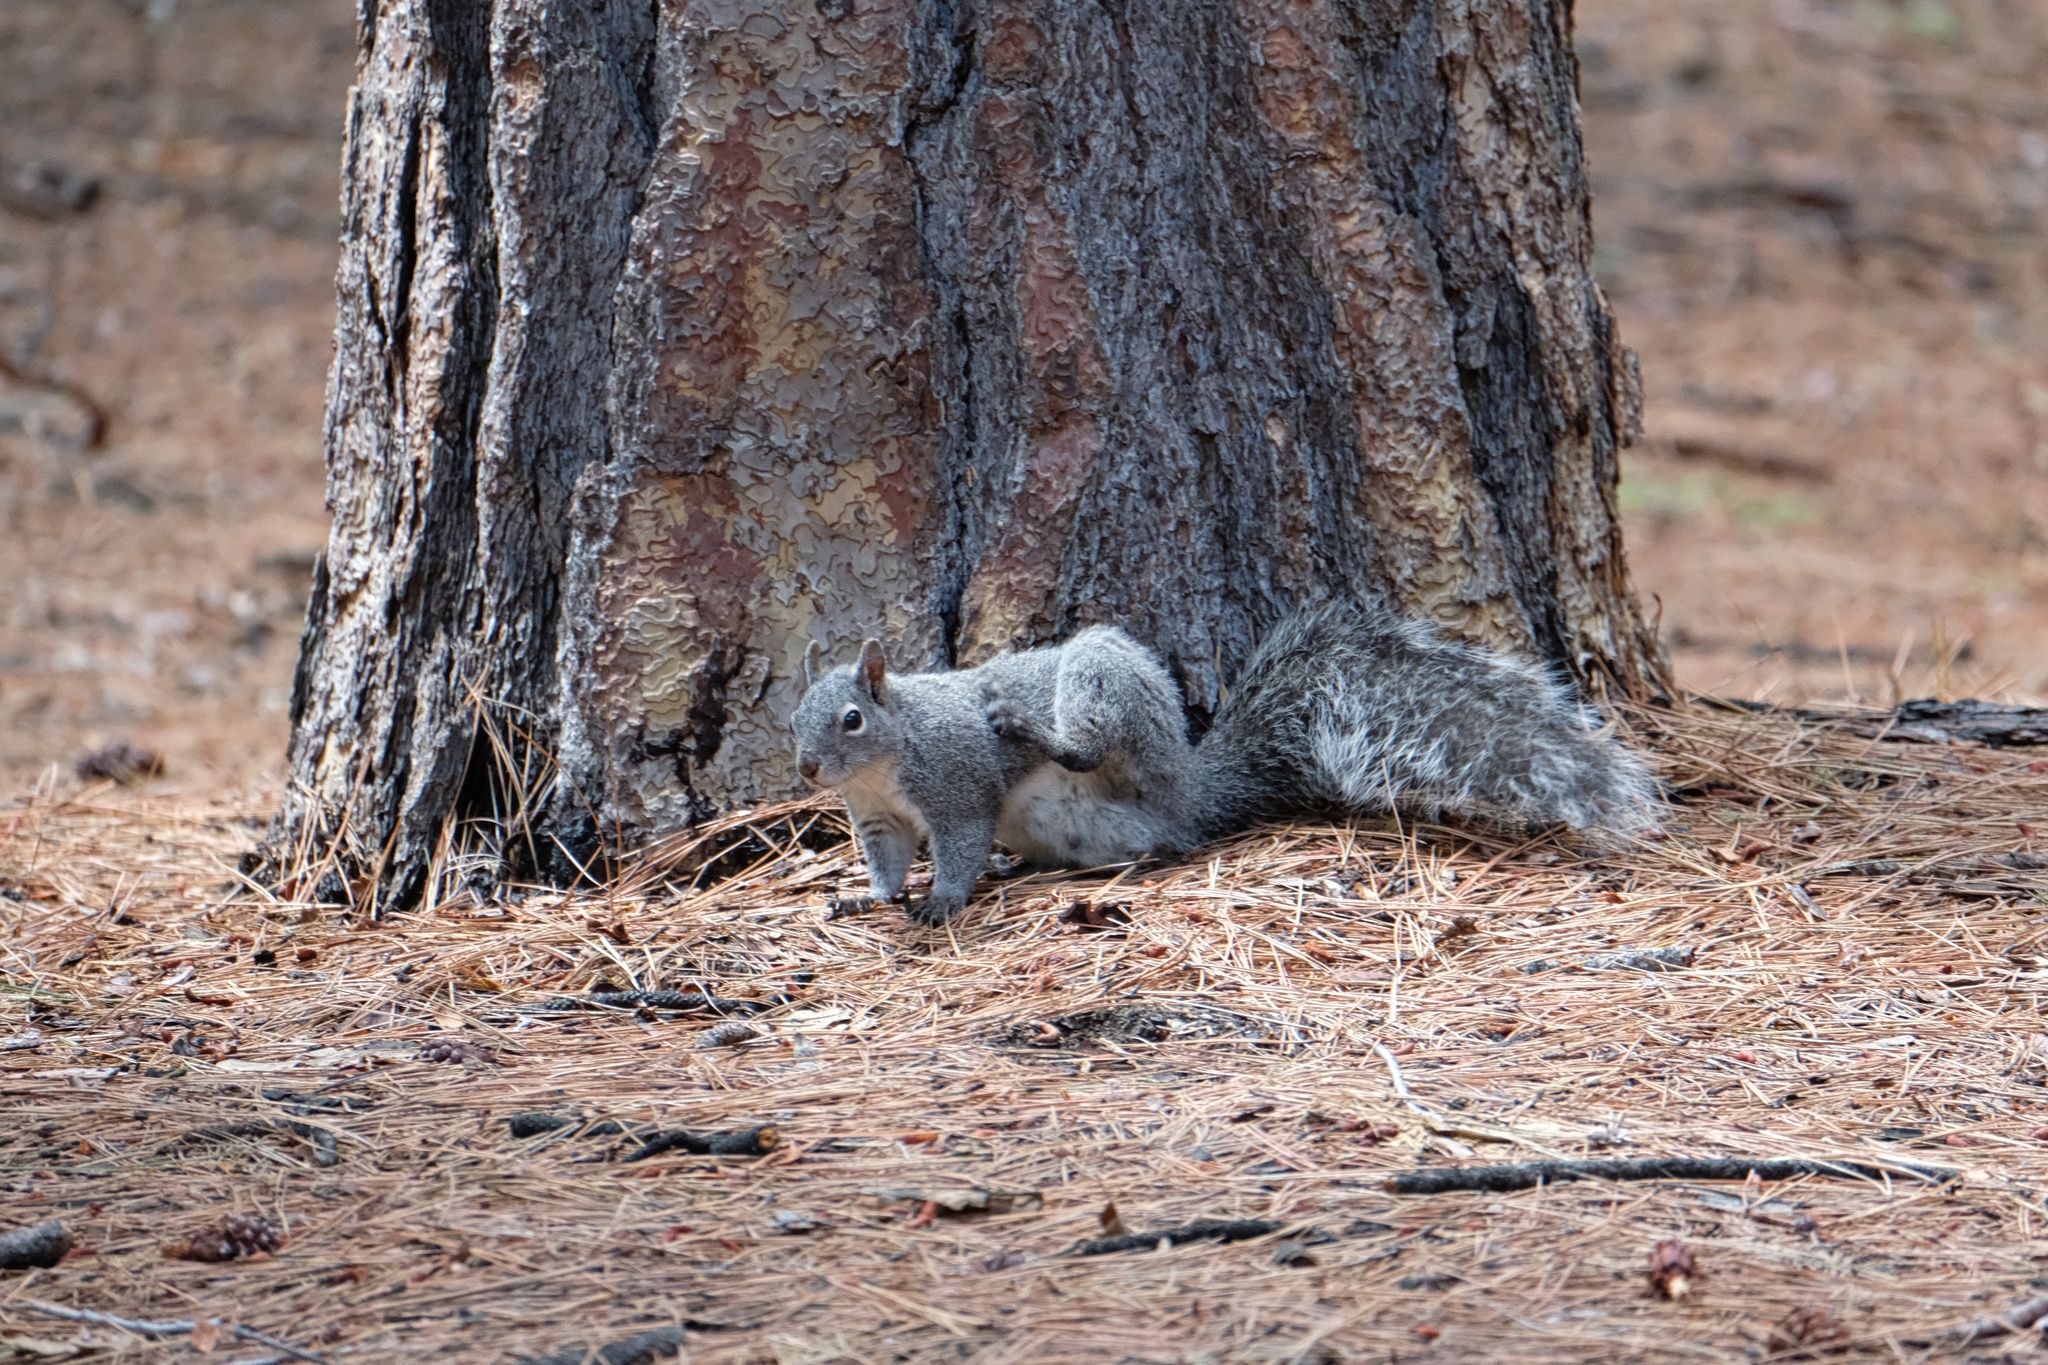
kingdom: Animalia
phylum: Chordata
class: Mammalia
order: Rodentia
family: Sciuridae
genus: Sciurus
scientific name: Sciurus griseus
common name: Western gray squirrel
